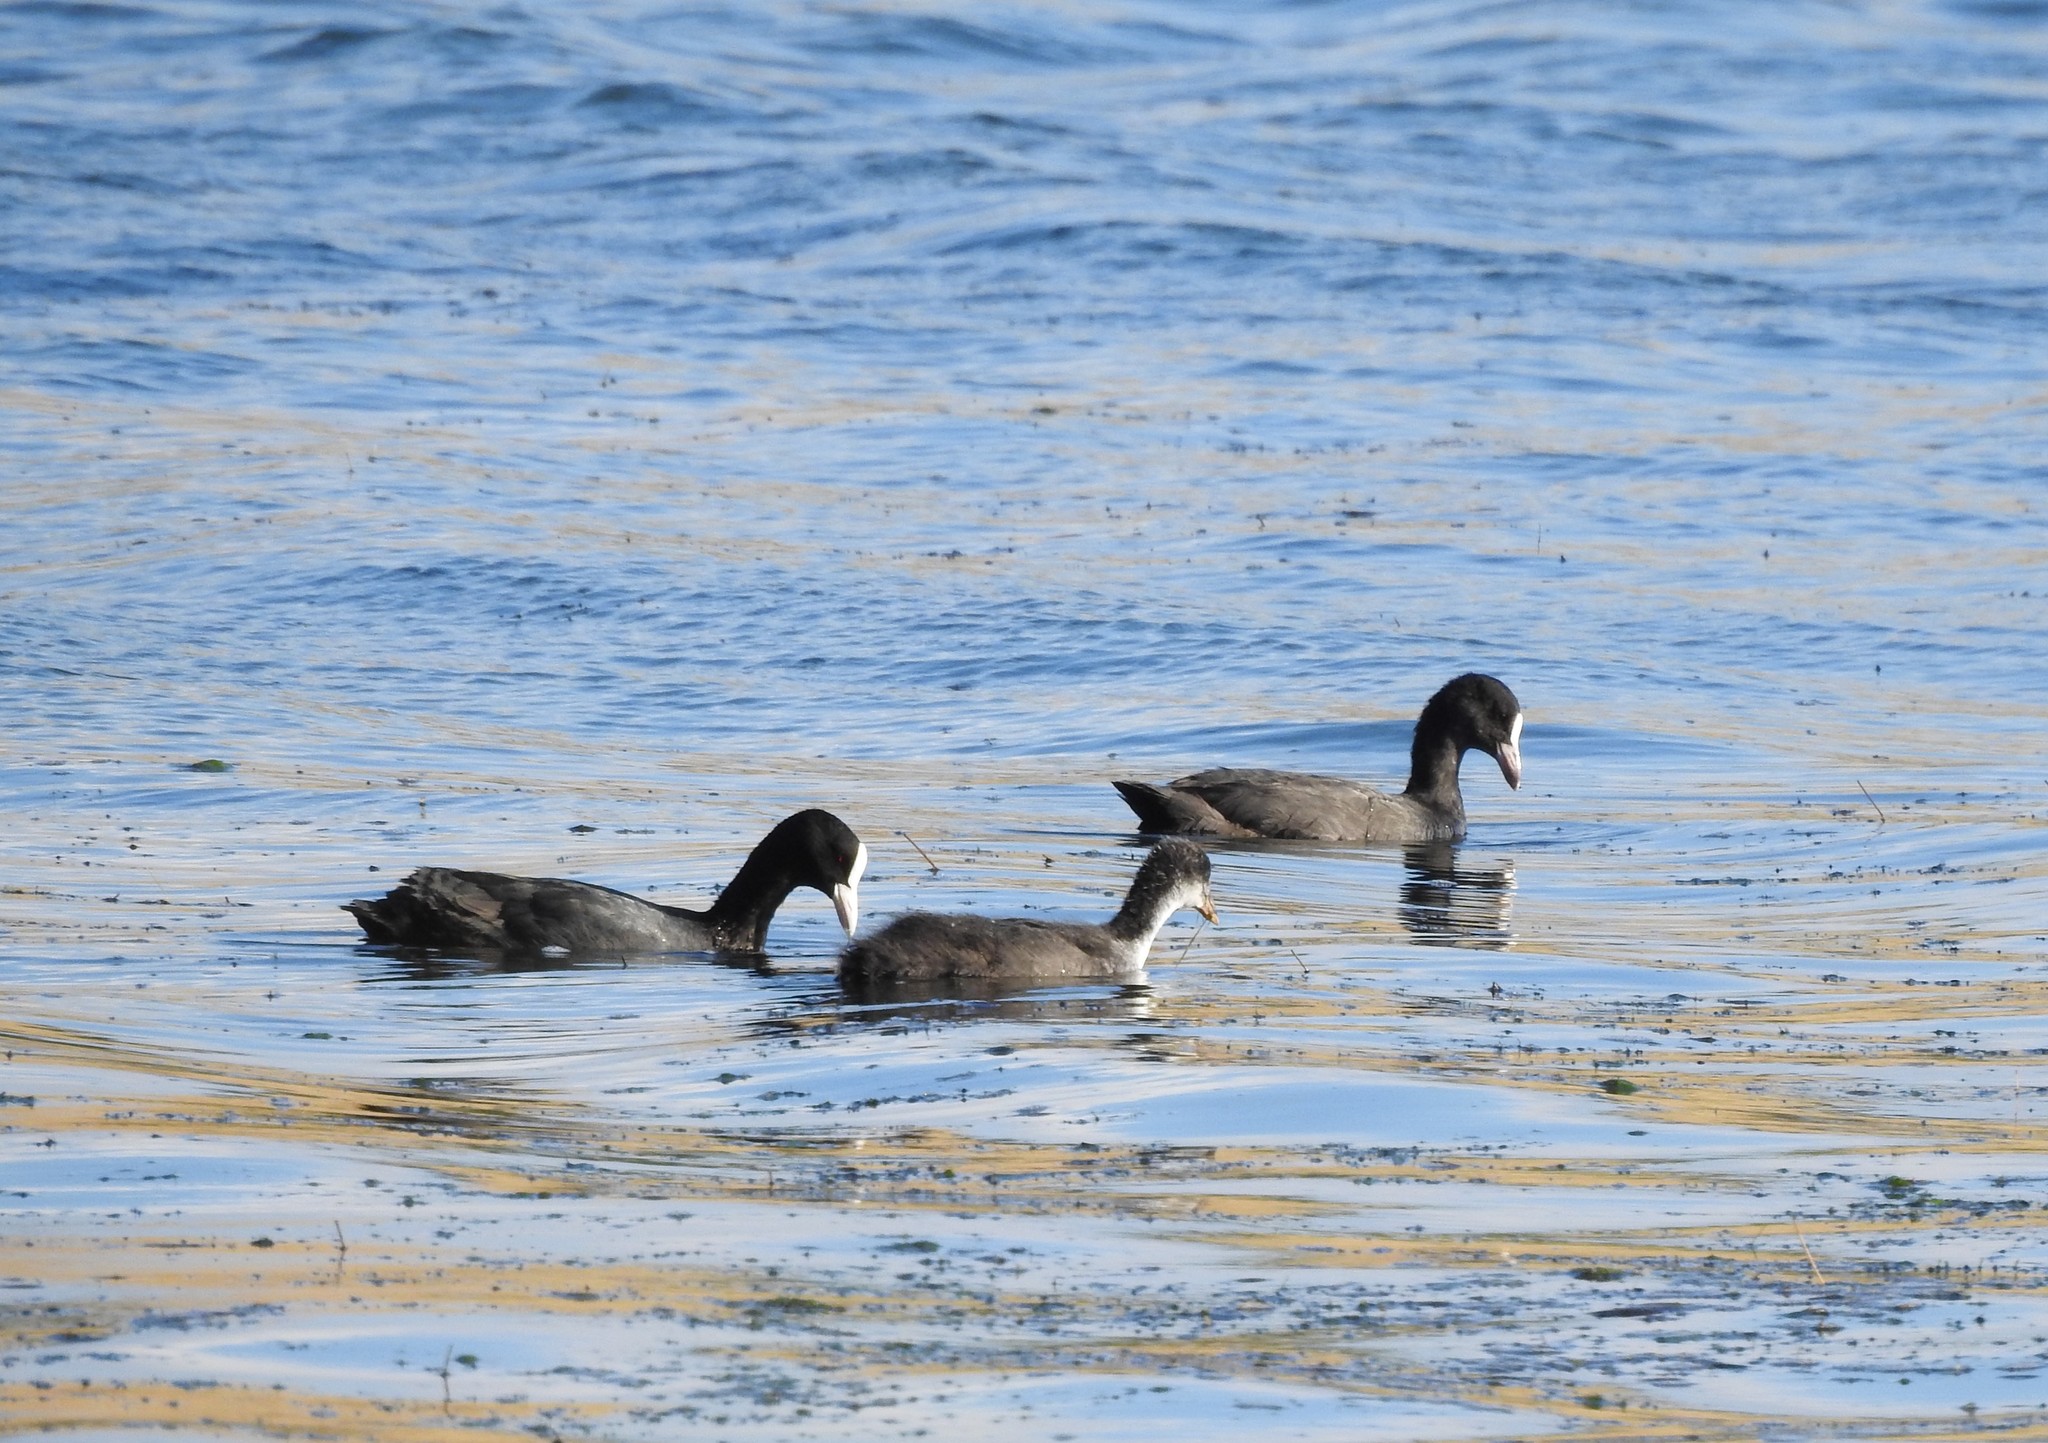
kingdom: Animalia
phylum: Chordata
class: Aves
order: Gruiformes
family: Rallidae
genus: Fulica
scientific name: Fulica atra
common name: Eurasian coot
